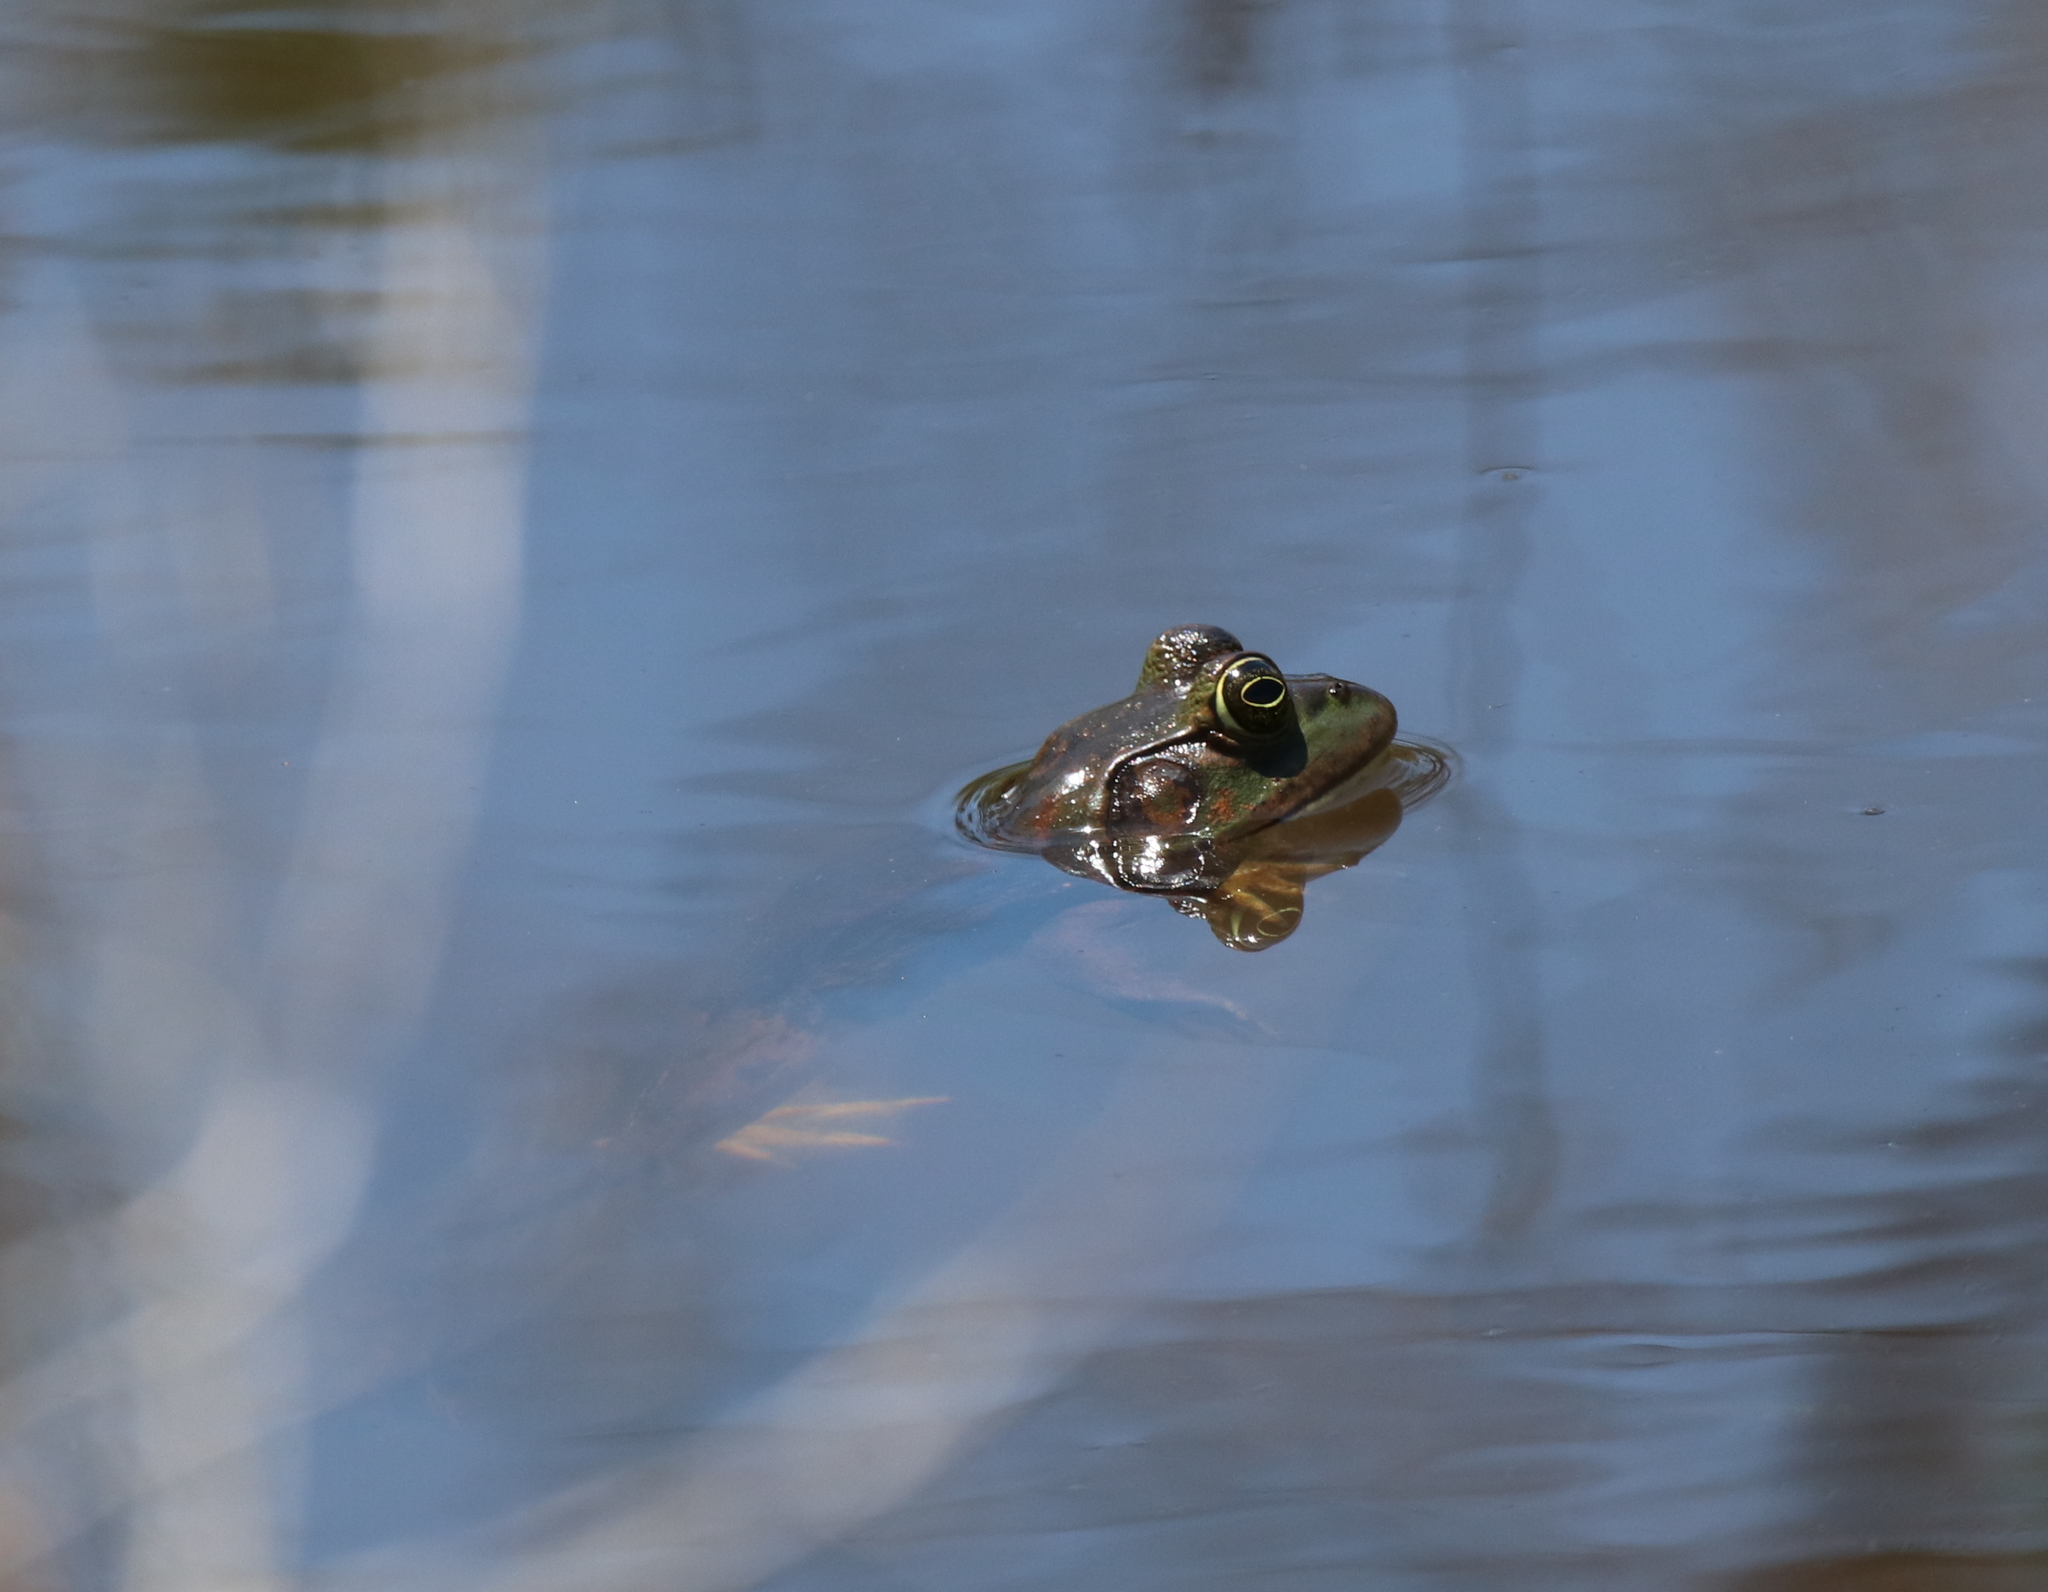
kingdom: Animalia
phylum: Chordata
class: Amphibia
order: Anura
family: Ranidae
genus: Lithobates
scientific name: Lithobates catesbeianus
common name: American bullfrog
